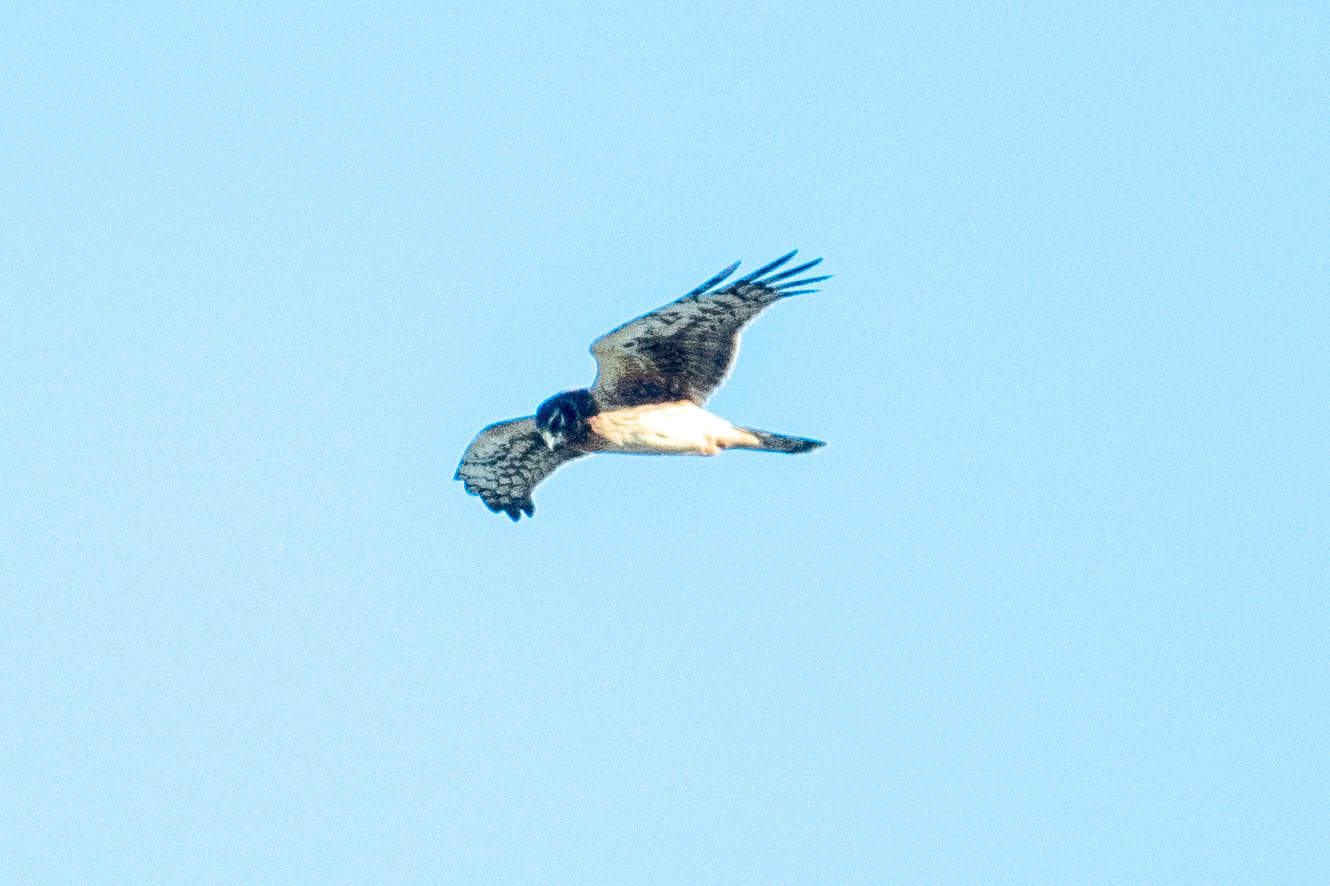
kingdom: Animalia
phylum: Chordata
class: Aves
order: Accipitriformes
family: Accipitridae
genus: Circus
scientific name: Circus cyaneus
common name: Hen harrier
